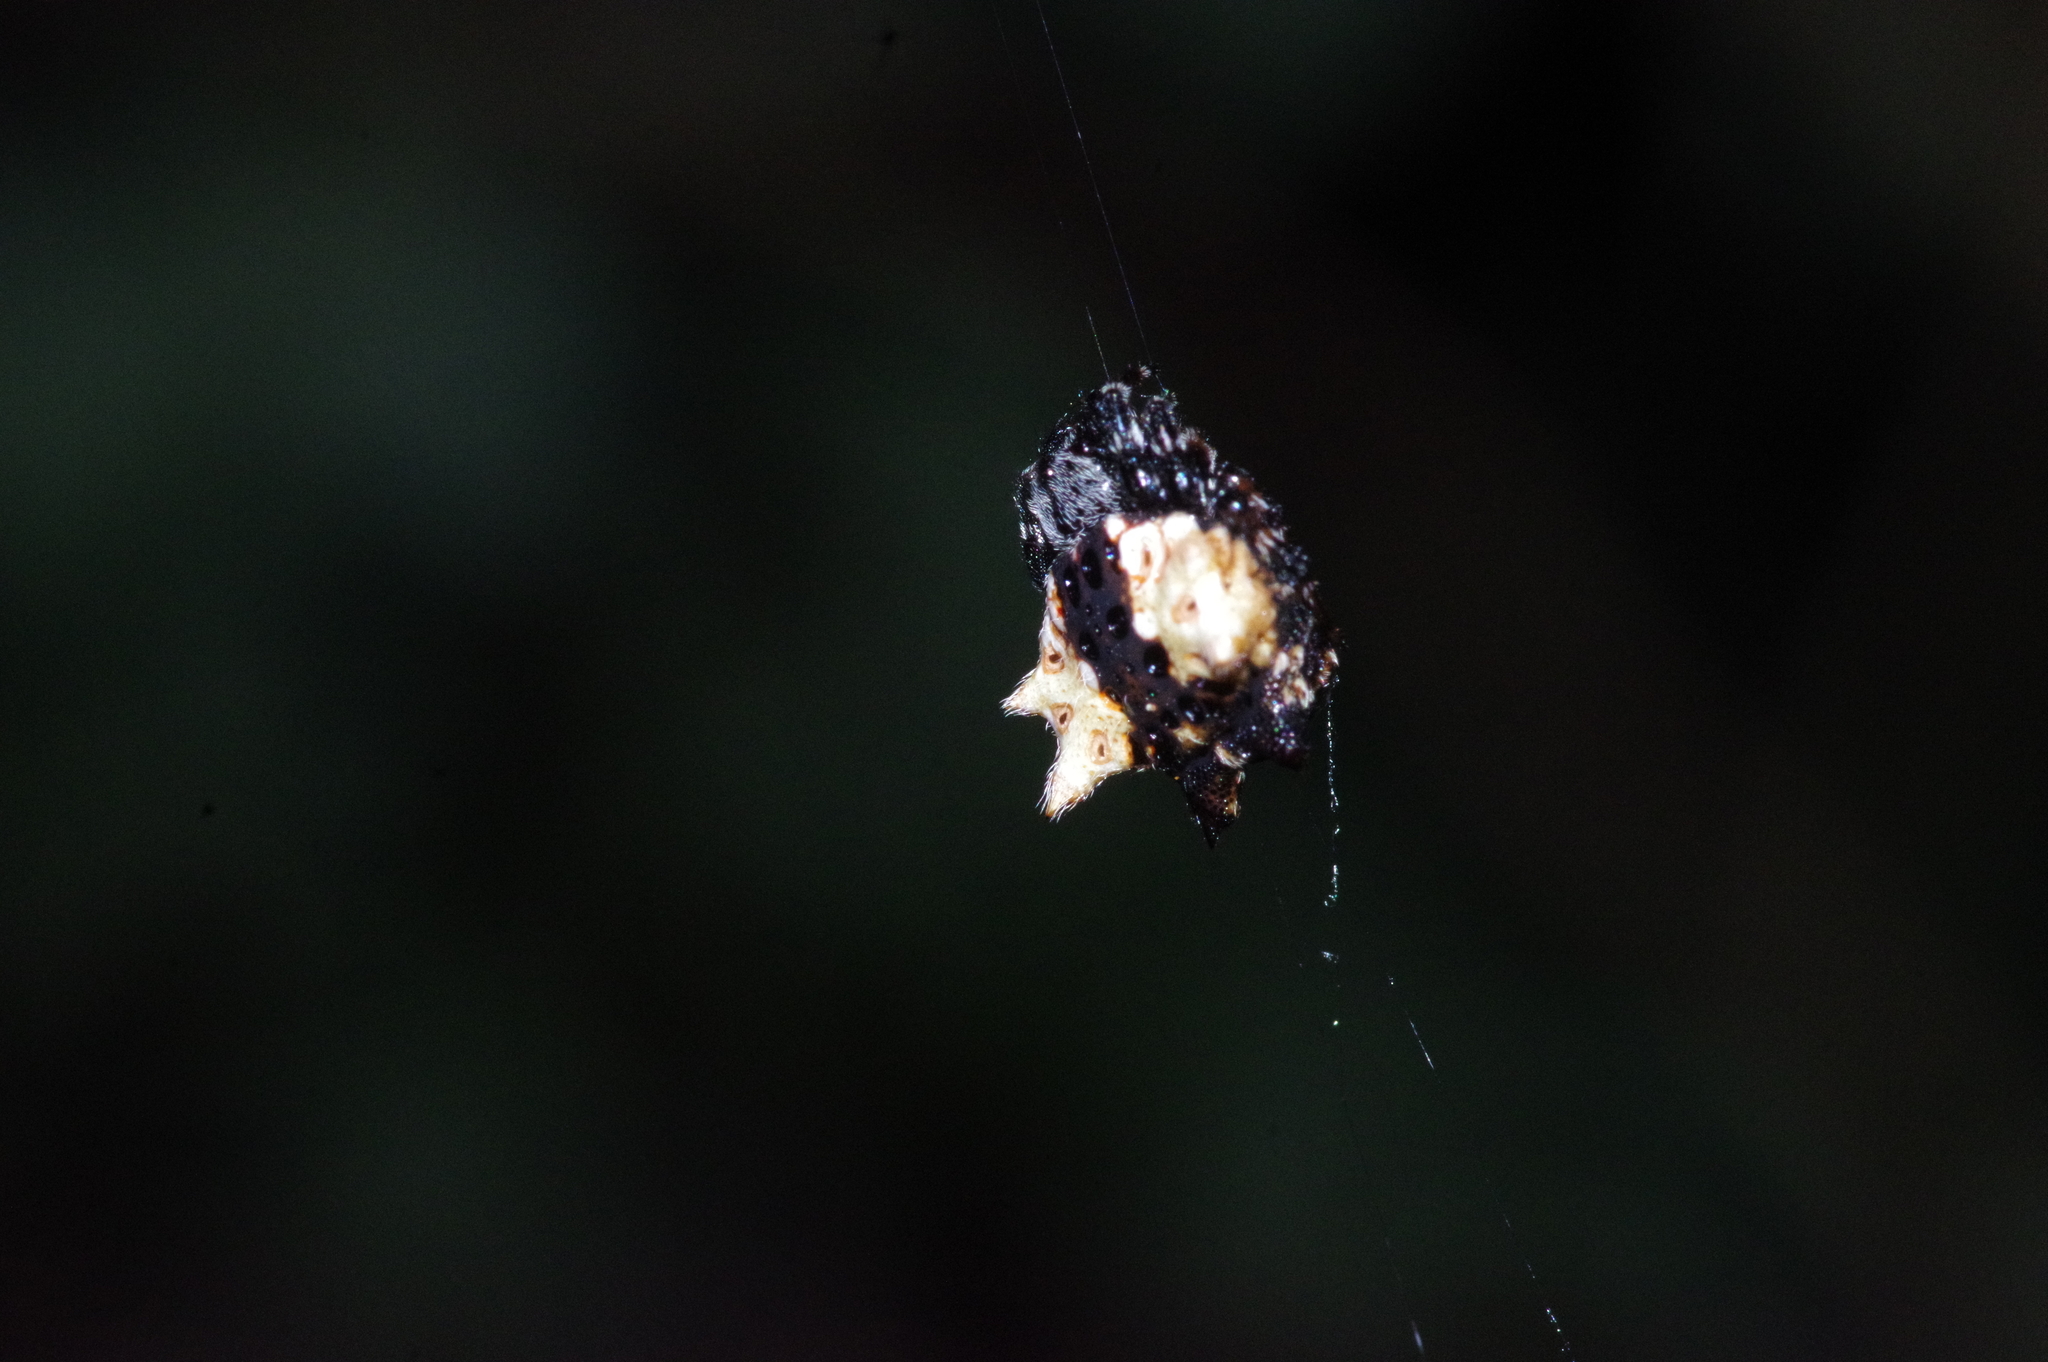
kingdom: Animalia
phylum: Arthropoda
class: Arachnida
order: Araneae
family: Araneidae
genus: Gasteracantha
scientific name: Gasteracantha mediofusca
